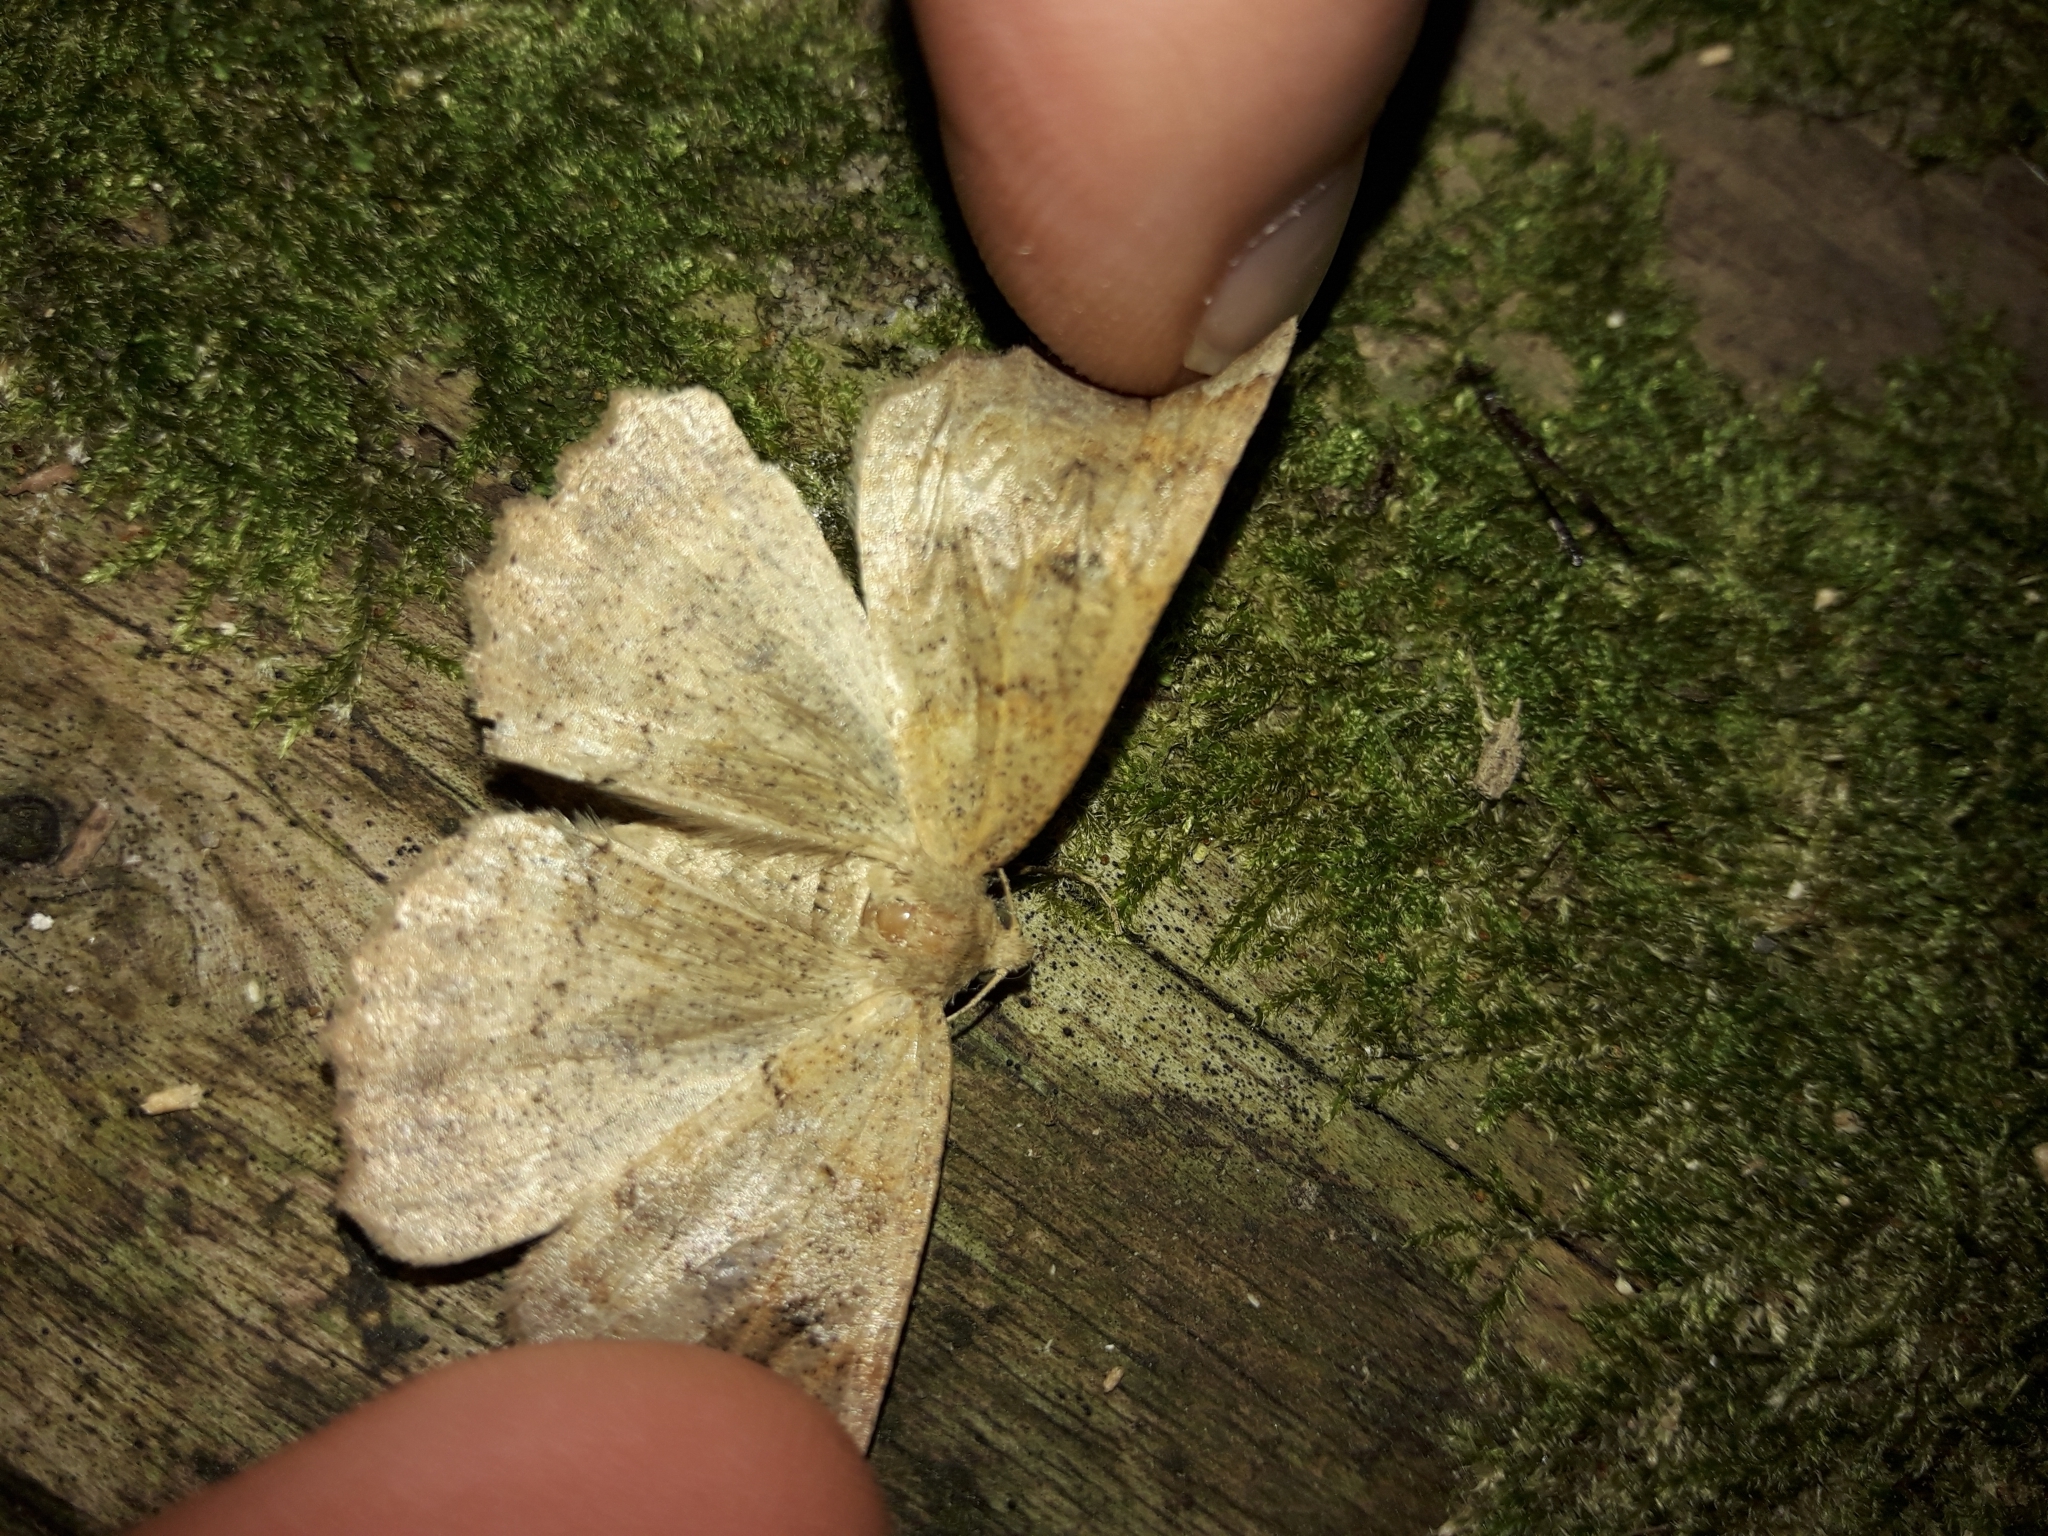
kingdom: Animalia
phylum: Arthropoda
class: Insecta
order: Lepidoptera
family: Geometridae
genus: Cleora
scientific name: Cleora scriptaria
